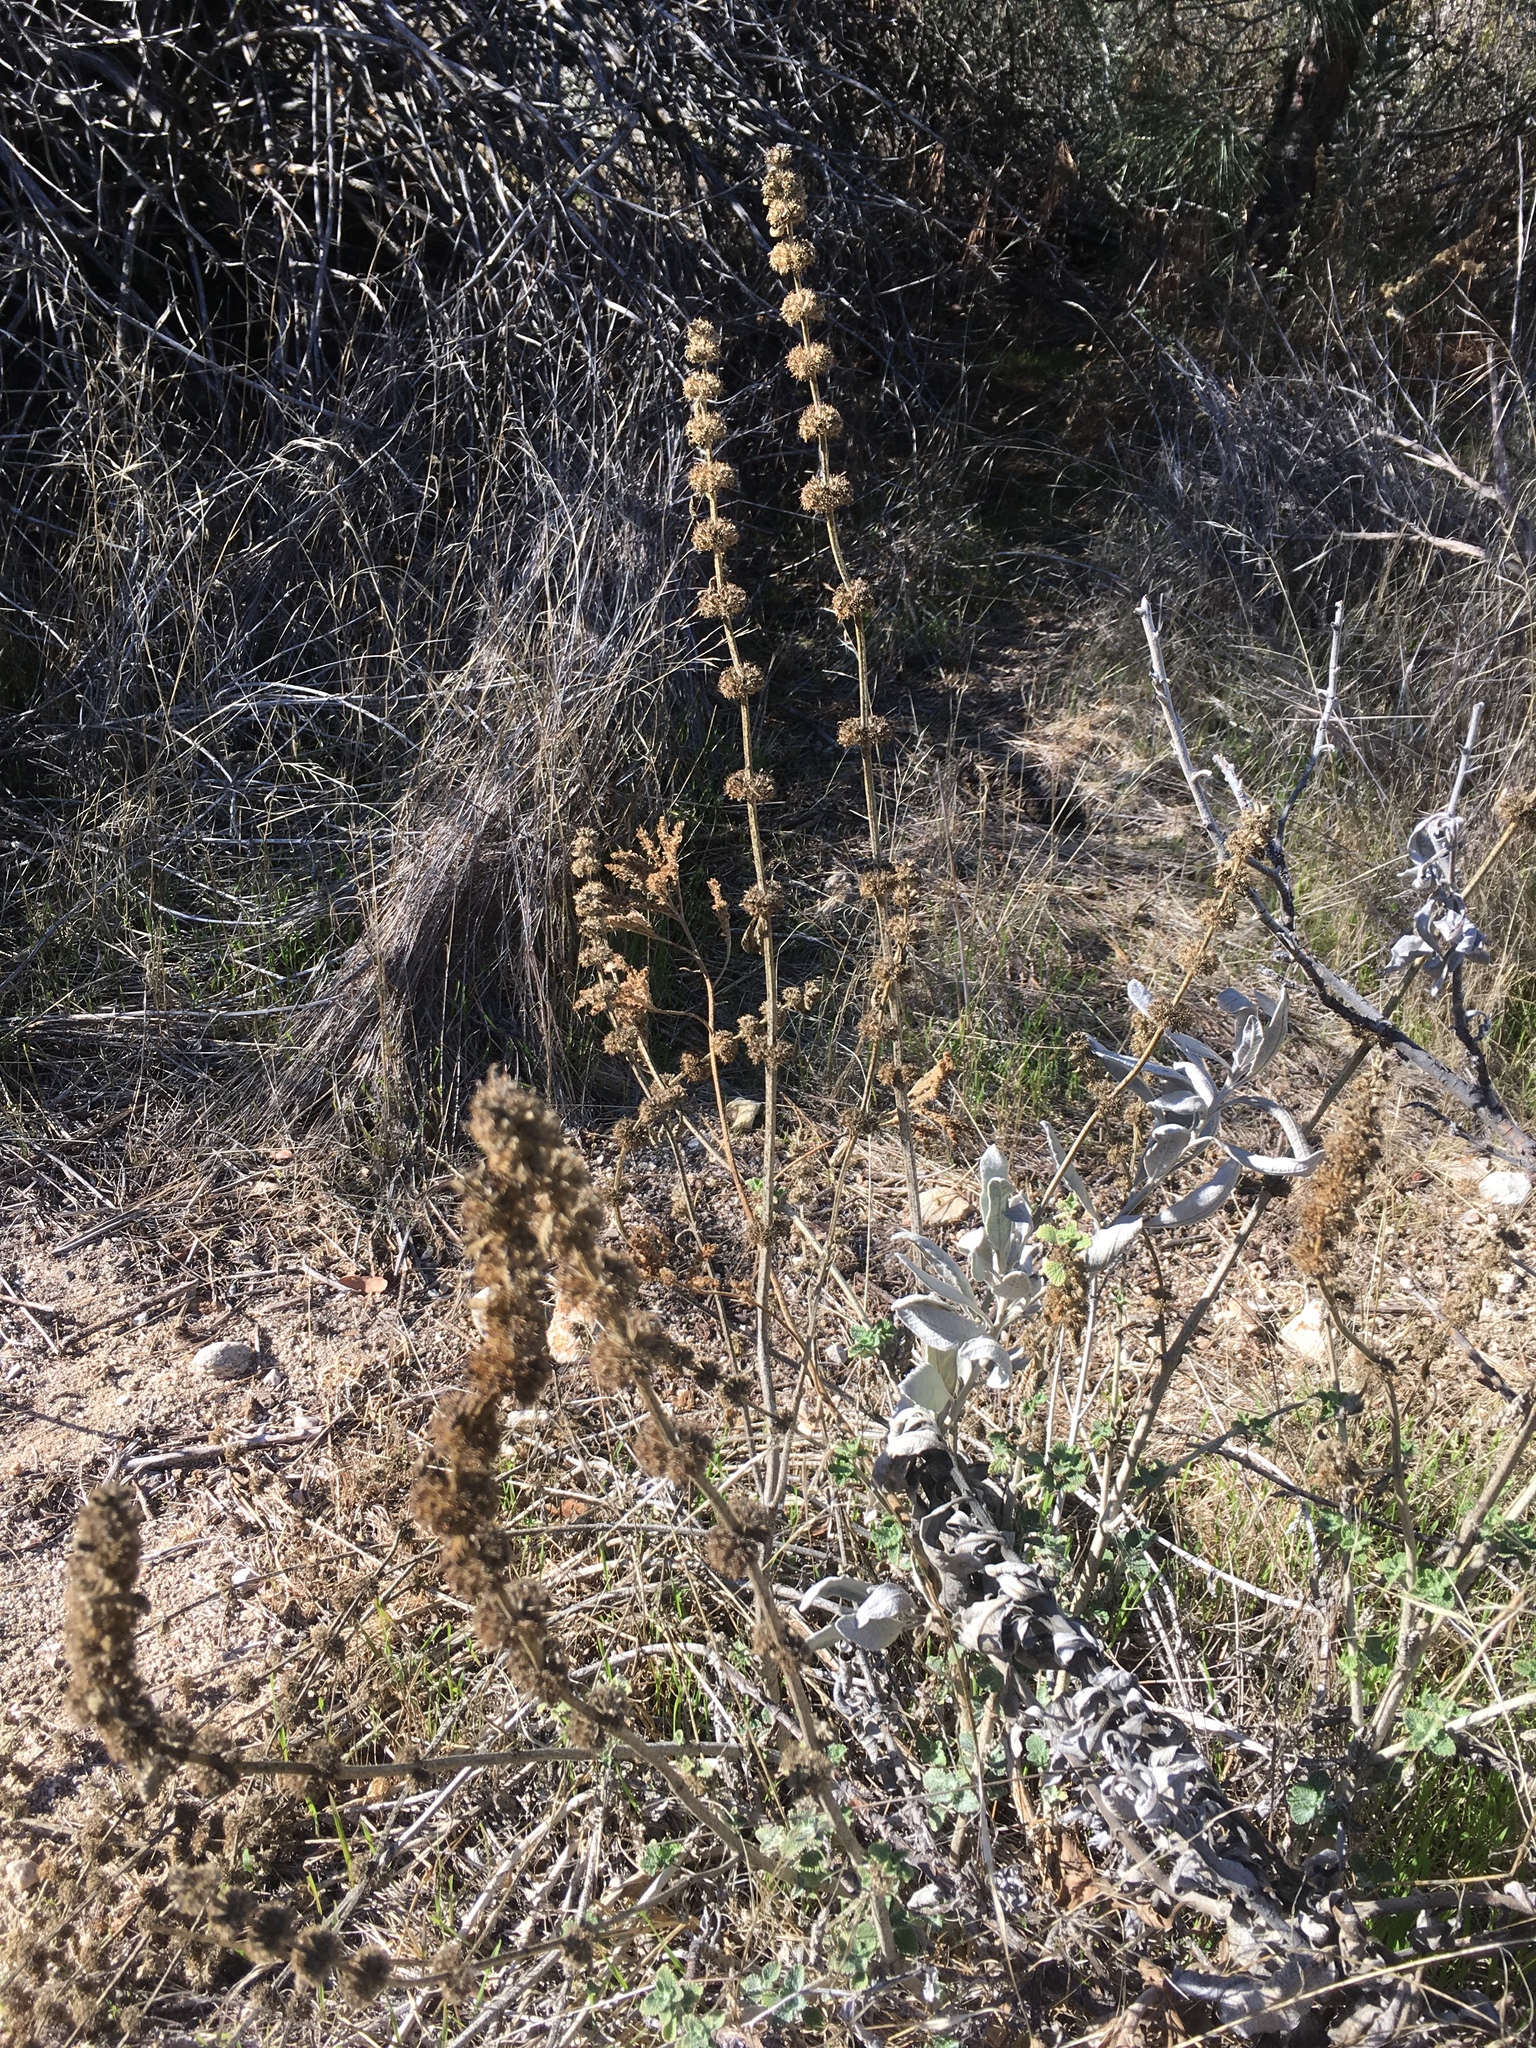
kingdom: Plantae
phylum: Tracheophyta
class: Magnoliopsida
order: Lamiales
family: Lamiaceae
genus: Marrubium
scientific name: Marrubium vulgare
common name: Horehound
